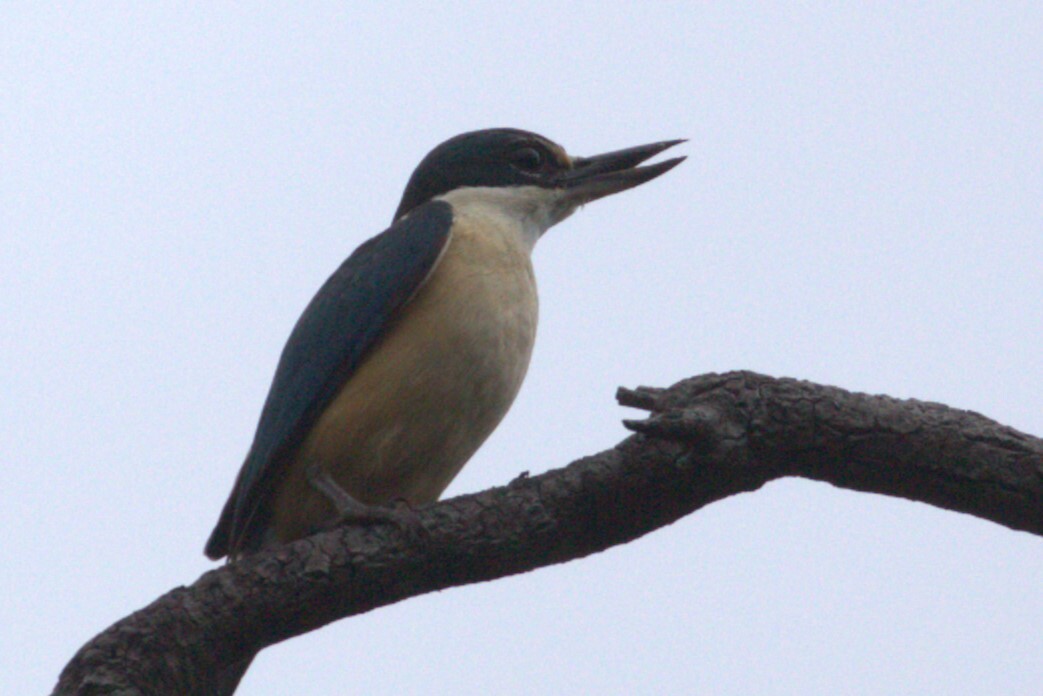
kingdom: Animalia
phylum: Chordata
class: Aves
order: Coraciiformes
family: Alcedinidae
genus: Todiramphus
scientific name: Todiramphus sanctus
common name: Sacred kingfisher
